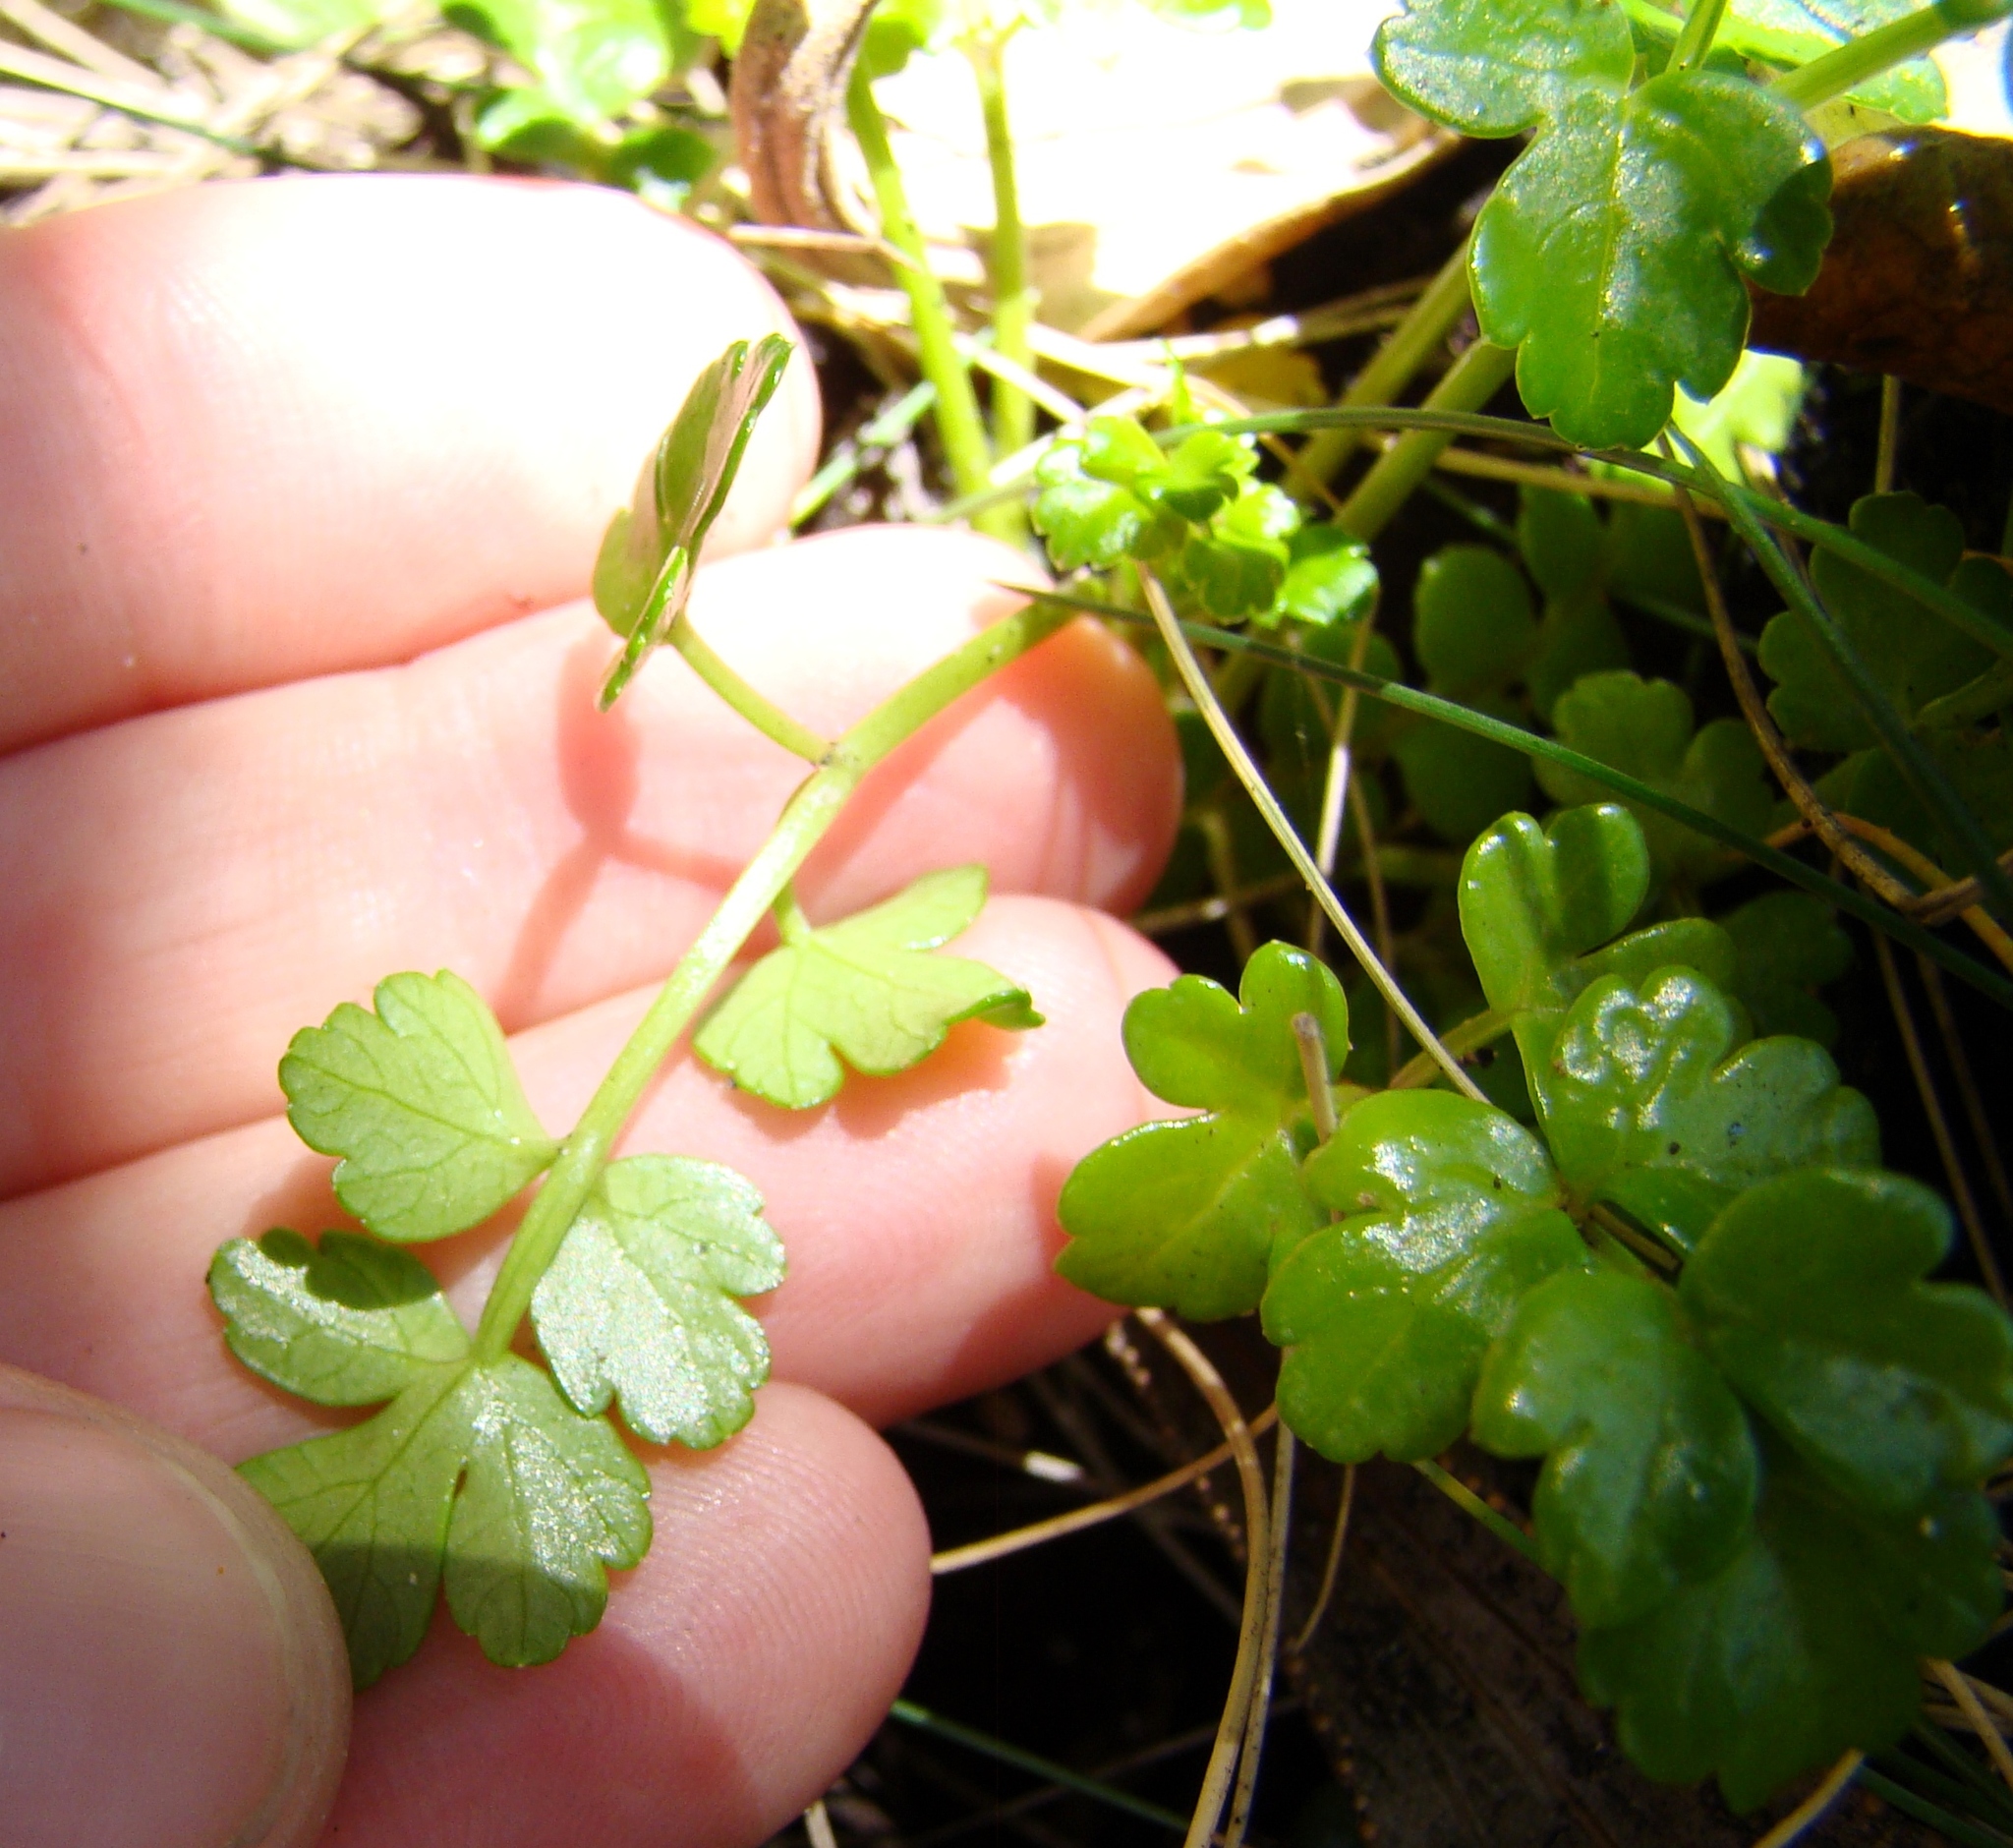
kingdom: Plantae
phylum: Tracheophyta
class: Magnoliopsida
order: Apiales
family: Apiaceae
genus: Apium
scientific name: Apium prostratum
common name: Prostrate marshwort
